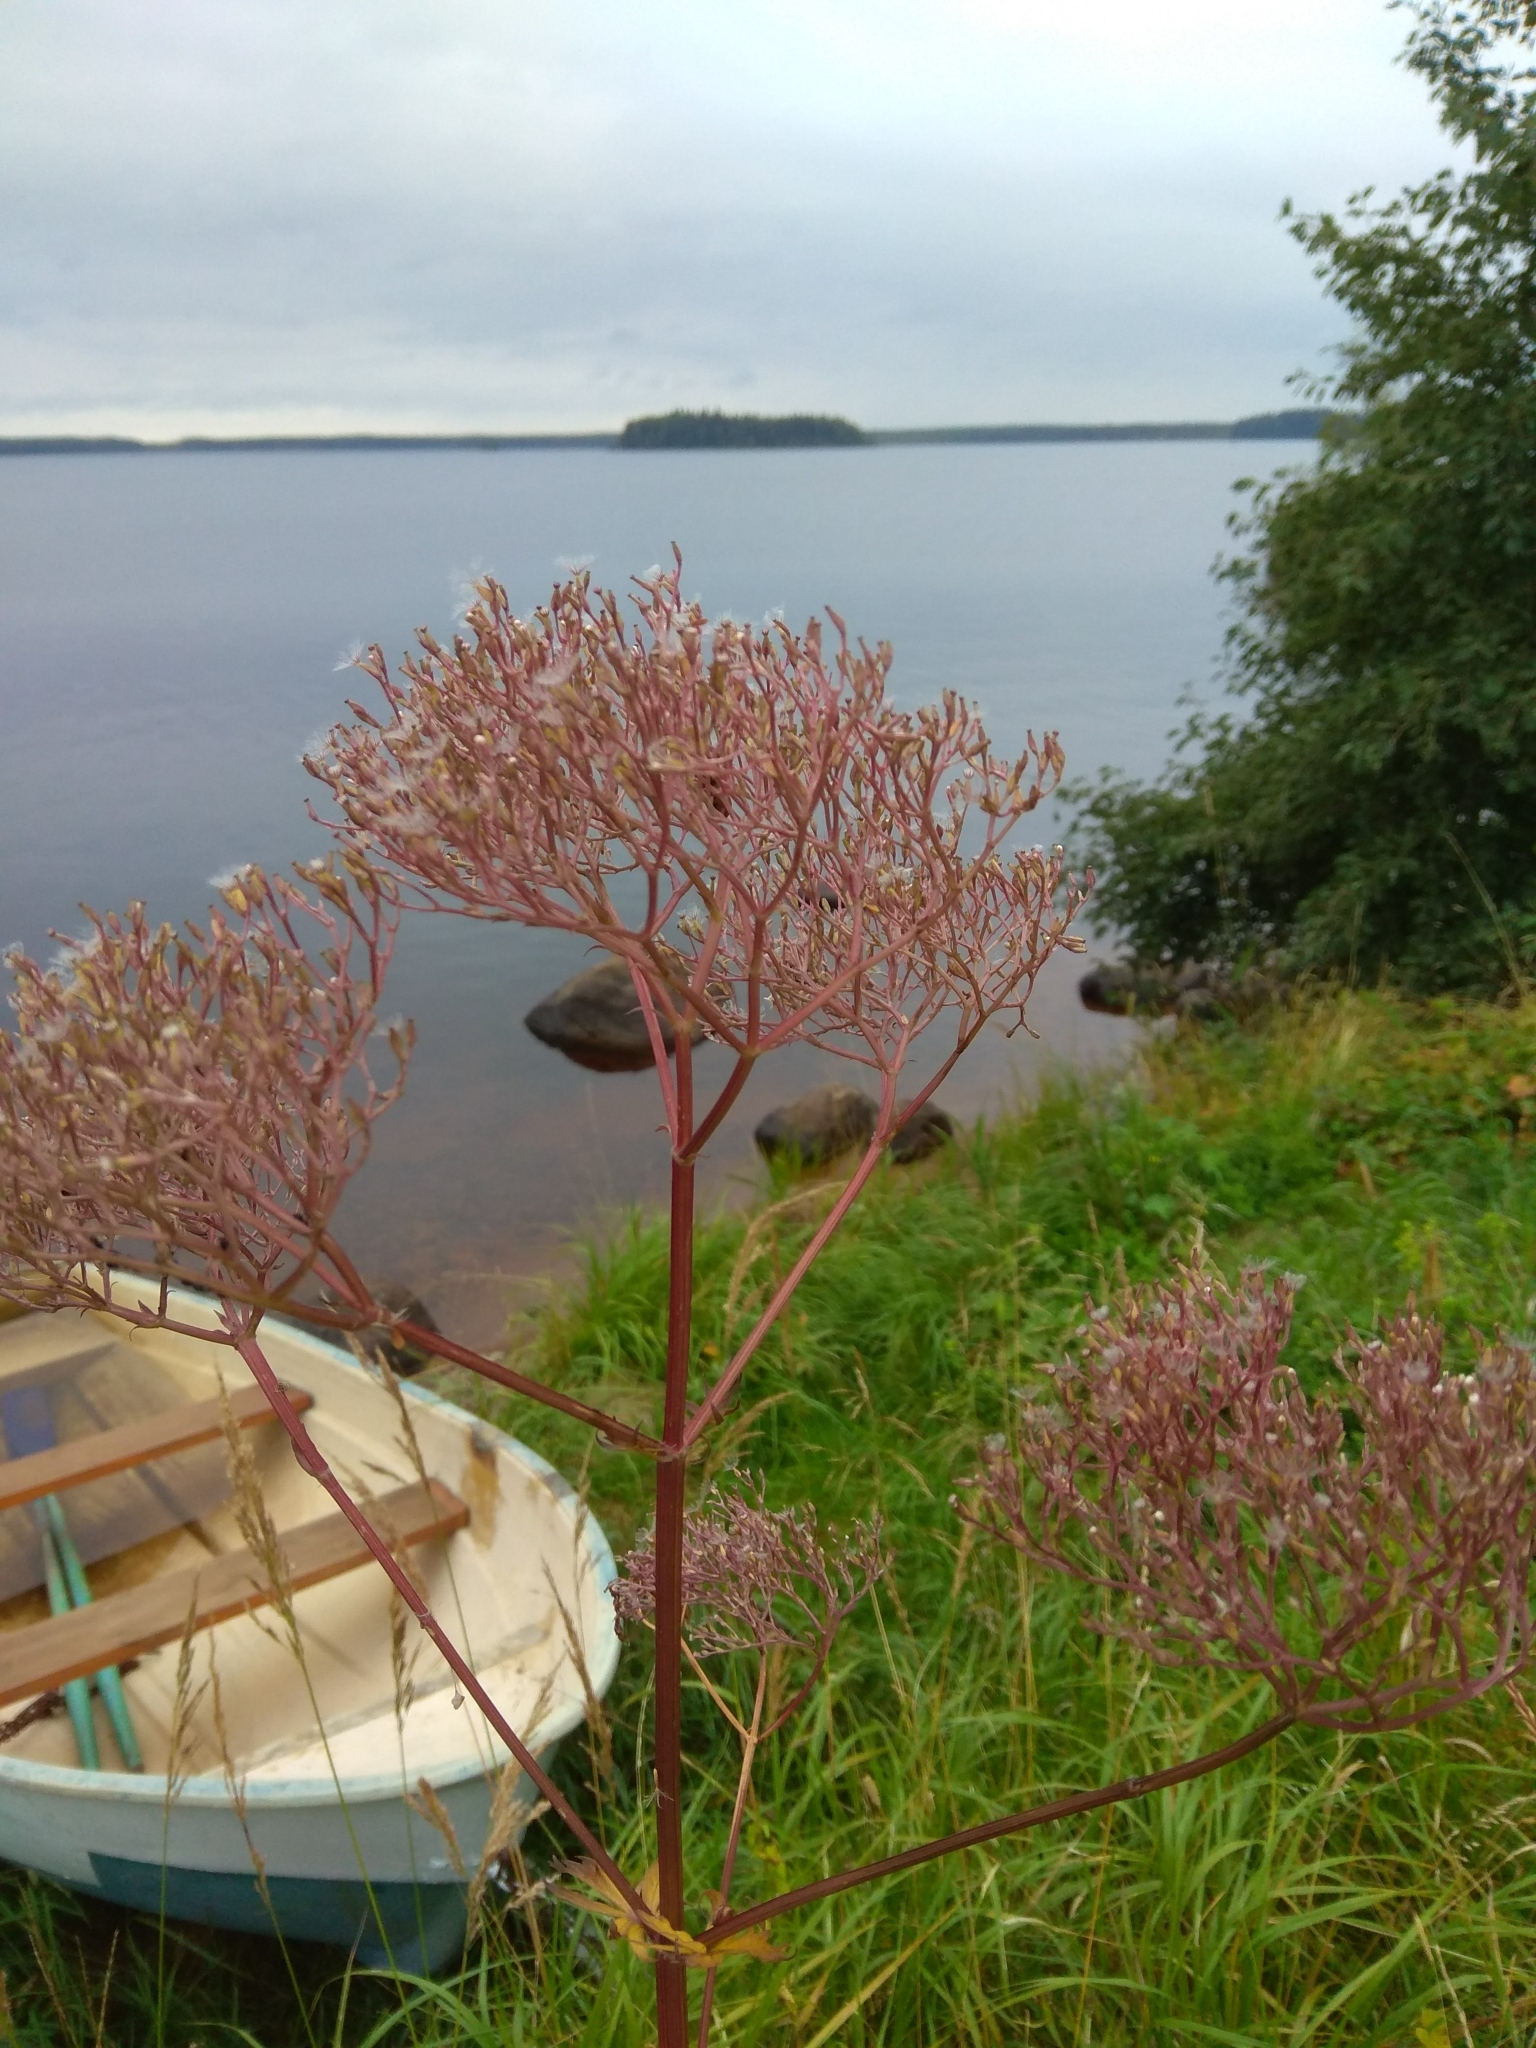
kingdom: Plantae
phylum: Tracheophyta
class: Magnoliopsida
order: Dipsacales
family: Caprifoliaceae
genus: Valeriana
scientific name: Valeriana officinalis
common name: Common valerian
